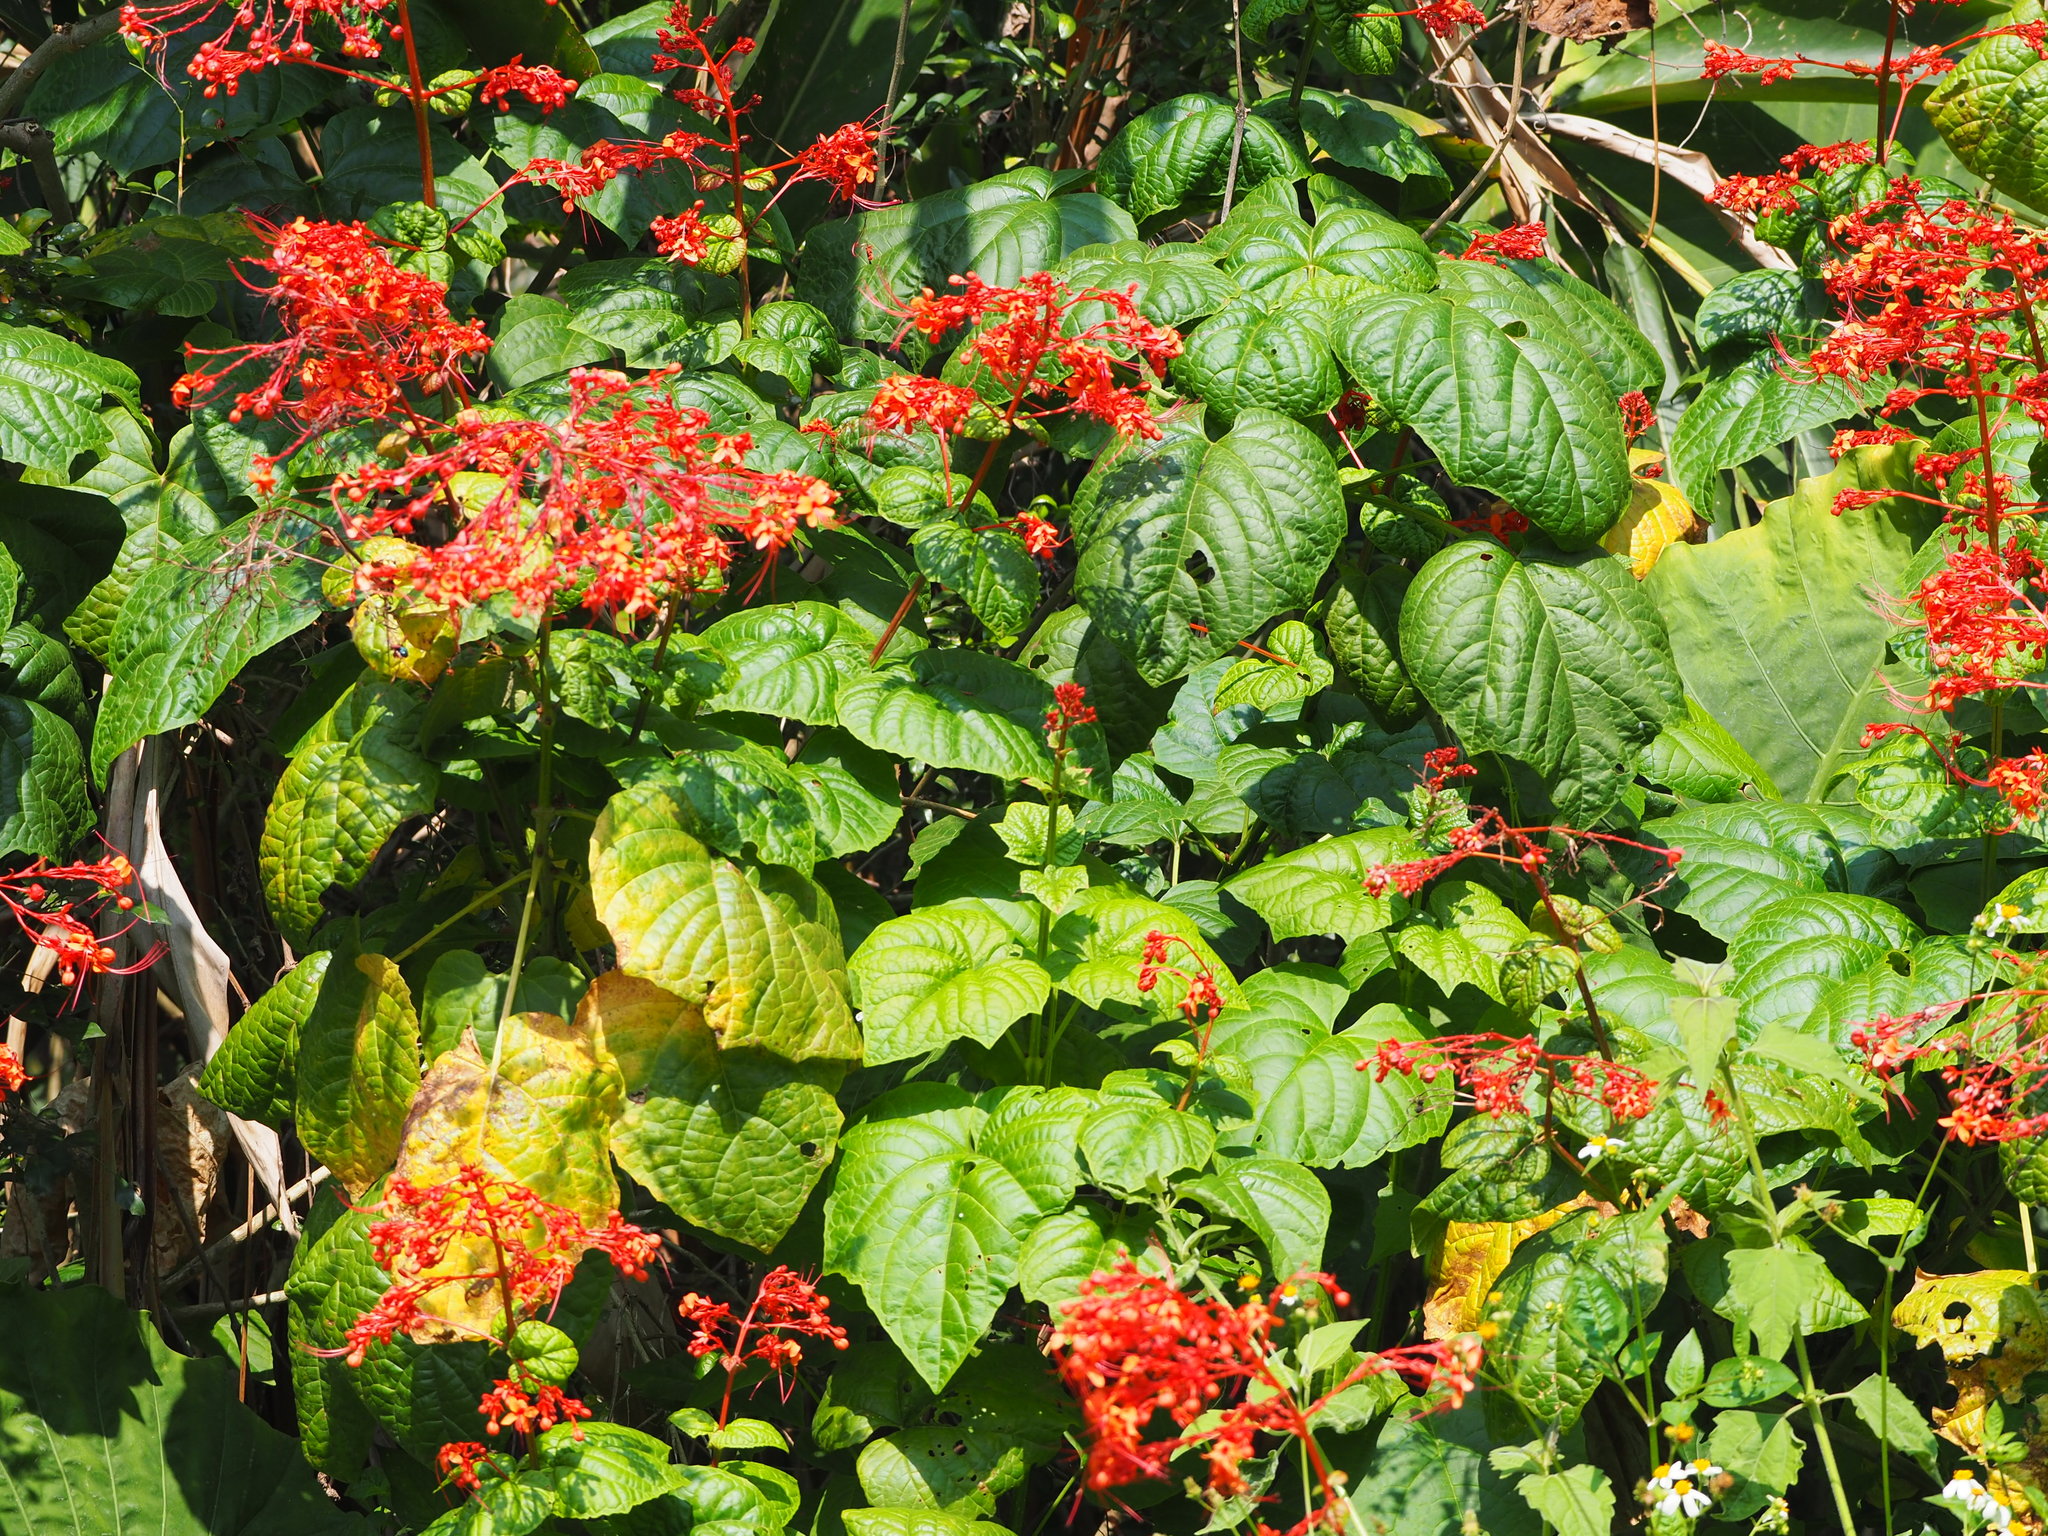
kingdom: Plantae
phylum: Tracheophyta
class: Magnoliopsida
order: Lamiales
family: Lamiaceae
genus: Clerodendrum
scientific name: Clerodendrum japonicum
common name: Japanese glorybower
